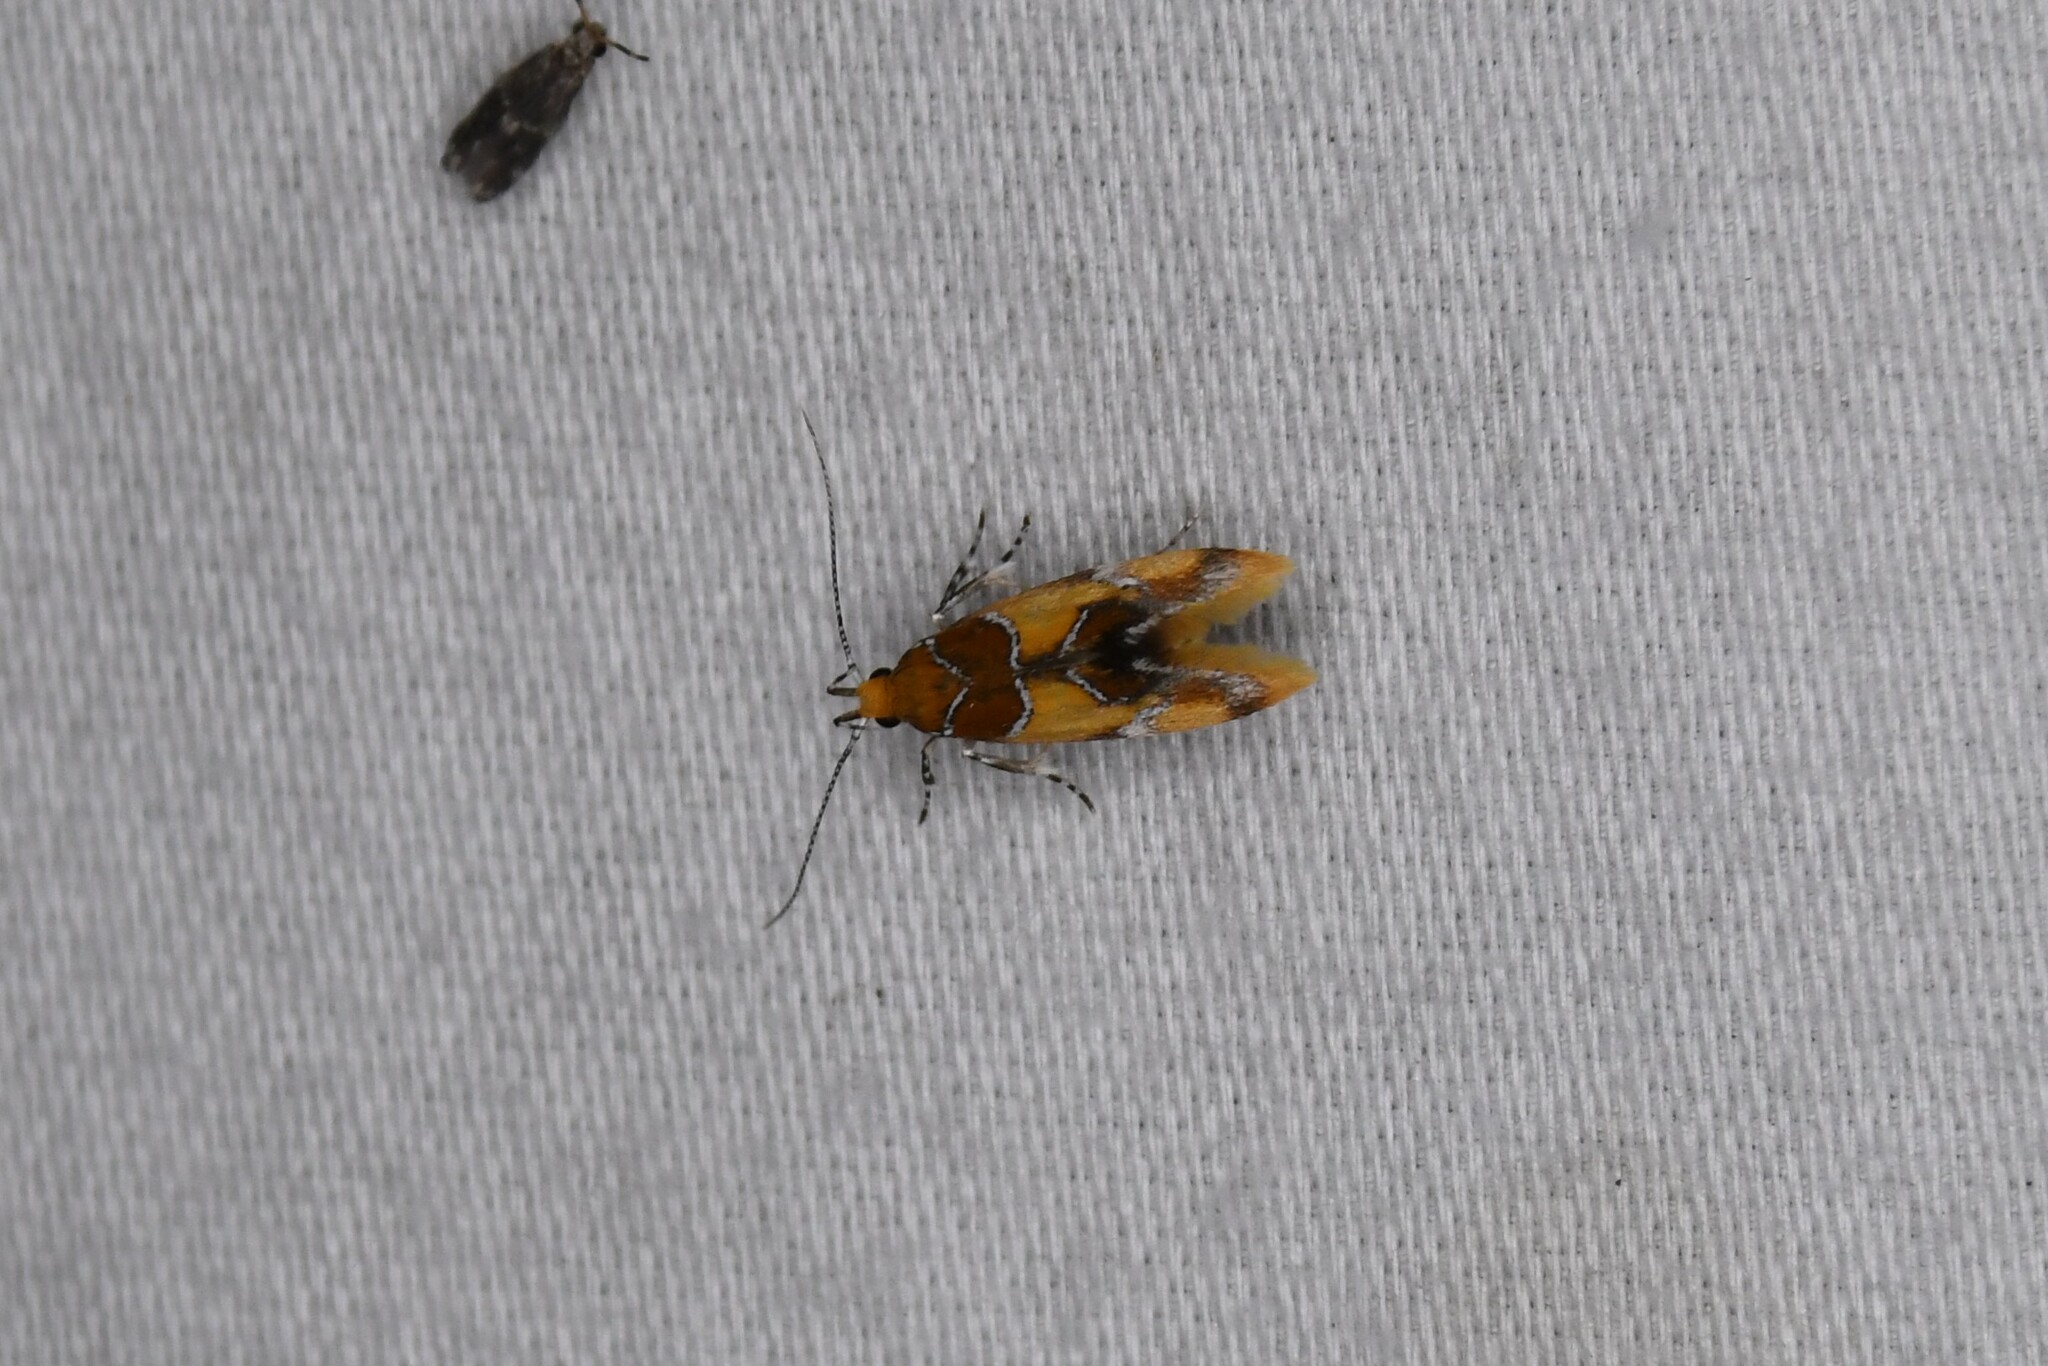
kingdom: Animalia
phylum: Arthropoda
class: Insecta
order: Lepidoptera
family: Oecophoridae
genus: Callima
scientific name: Callima argenticinctella
